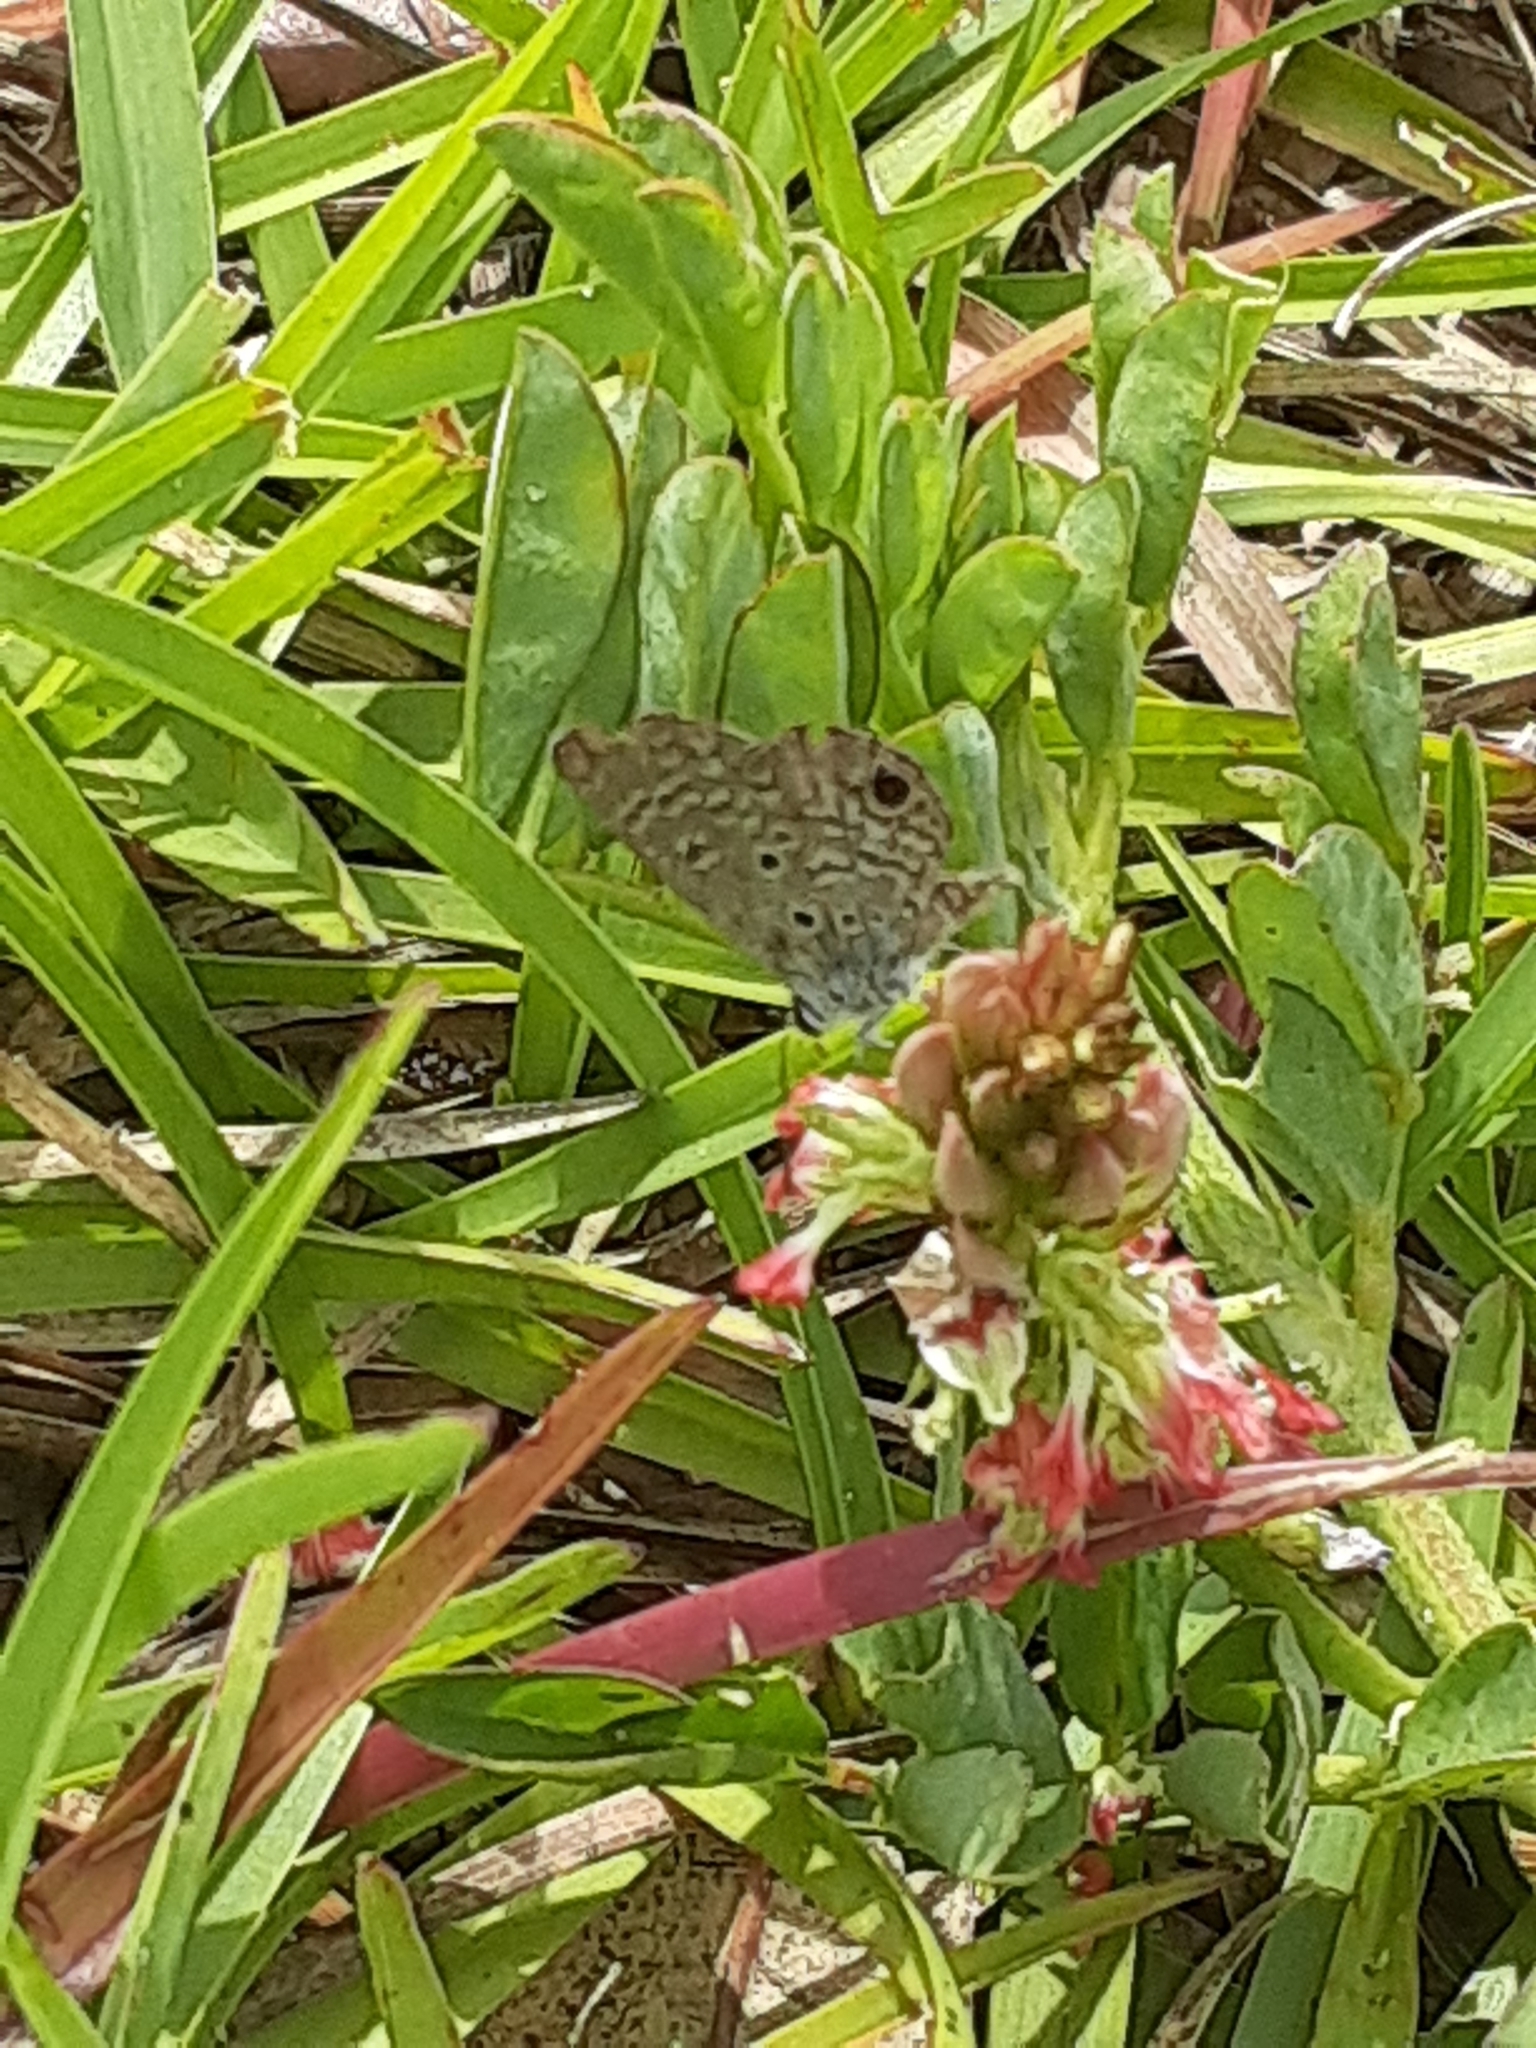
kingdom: Animalia
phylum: Arthropoda
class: Insecta
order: Lepidoptera
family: Lycaenidae
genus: Hemiargus
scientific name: Hemiargus ceraunus
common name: Ceraunus blue
